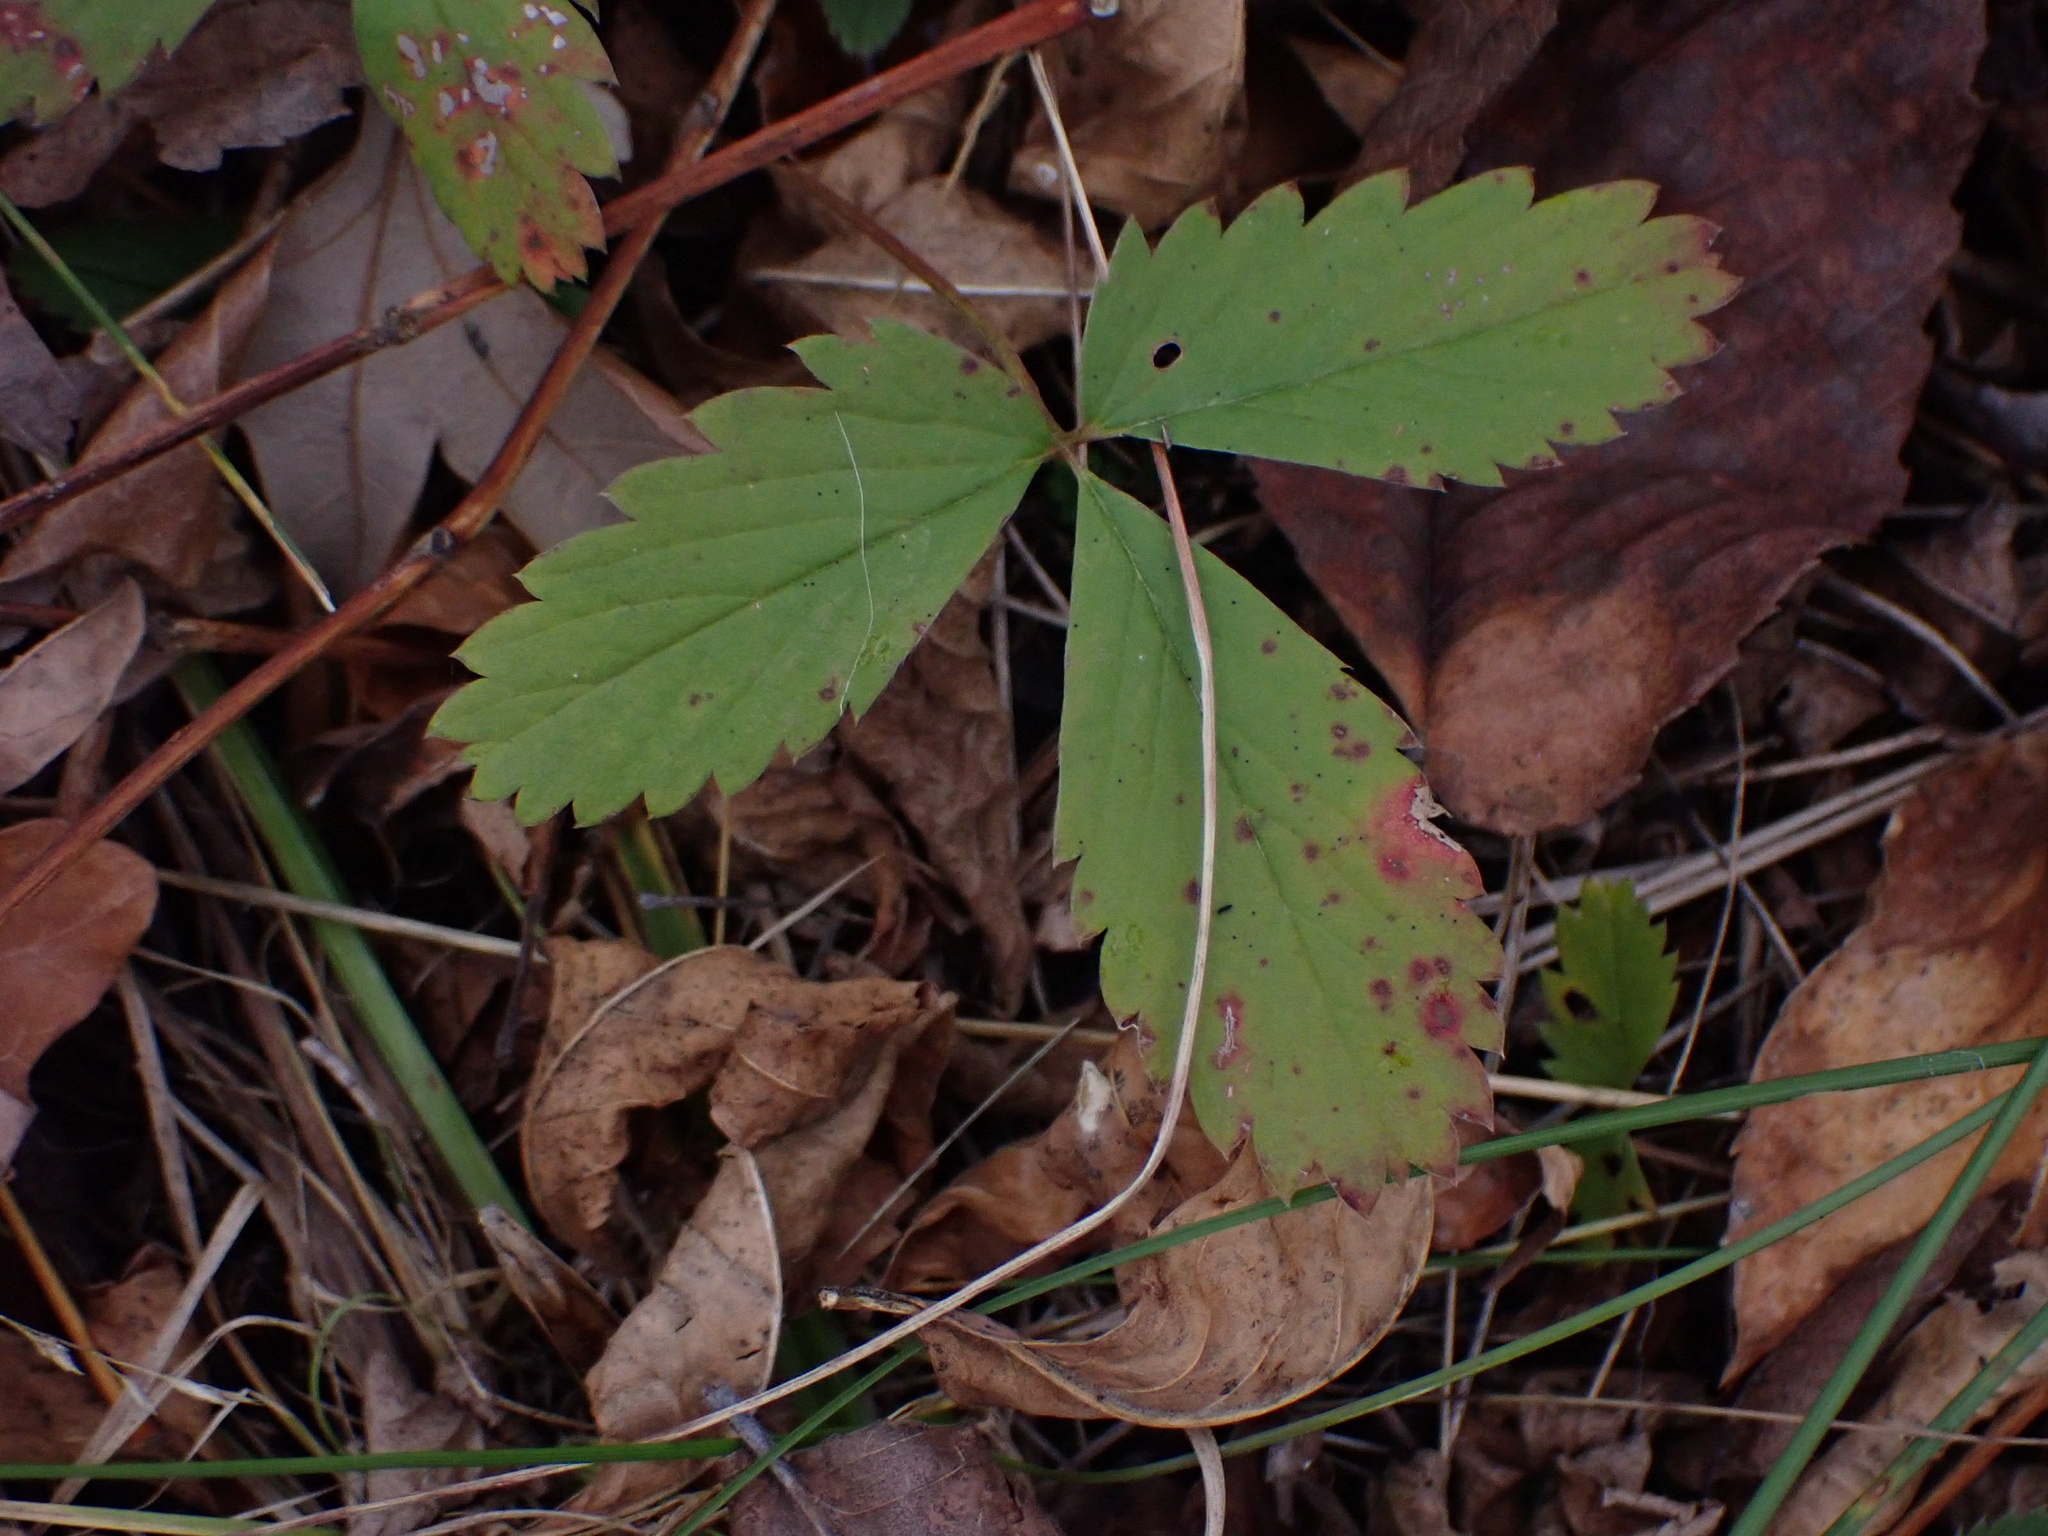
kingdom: Plantae
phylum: Tracheophyta
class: Magnoliopsida
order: Rosales
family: Rosaceae
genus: Fragaria
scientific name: Fragaria virginiana
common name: Thickleaved wild strawberry
